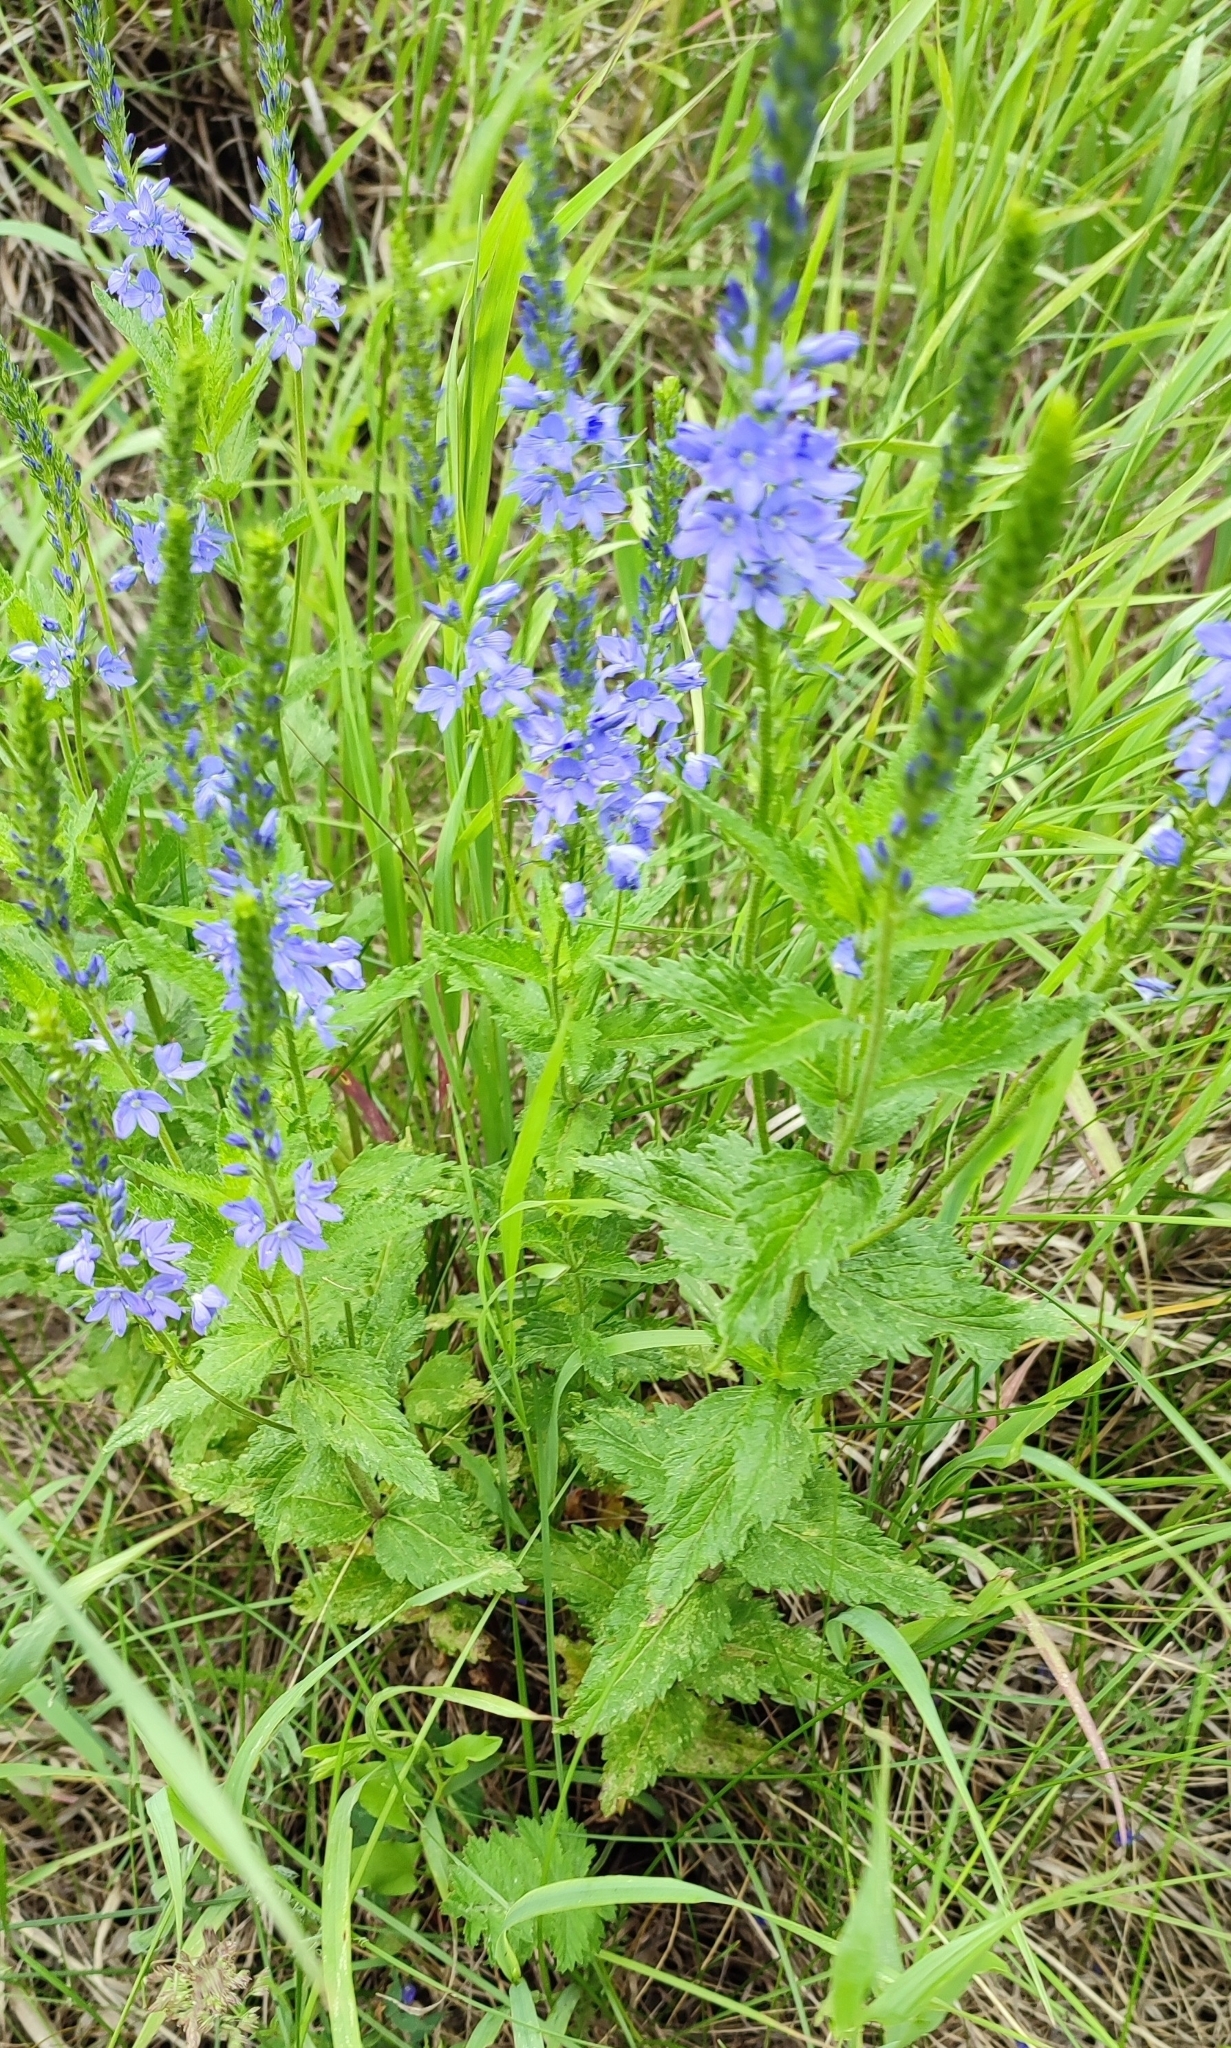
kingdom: Plantae
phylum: Tracheophyta
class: Magnoliopsida
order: Lamiales
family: Plantaginaceae
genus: Veronica
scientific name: Veronica teucrium
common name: Large speedwell
